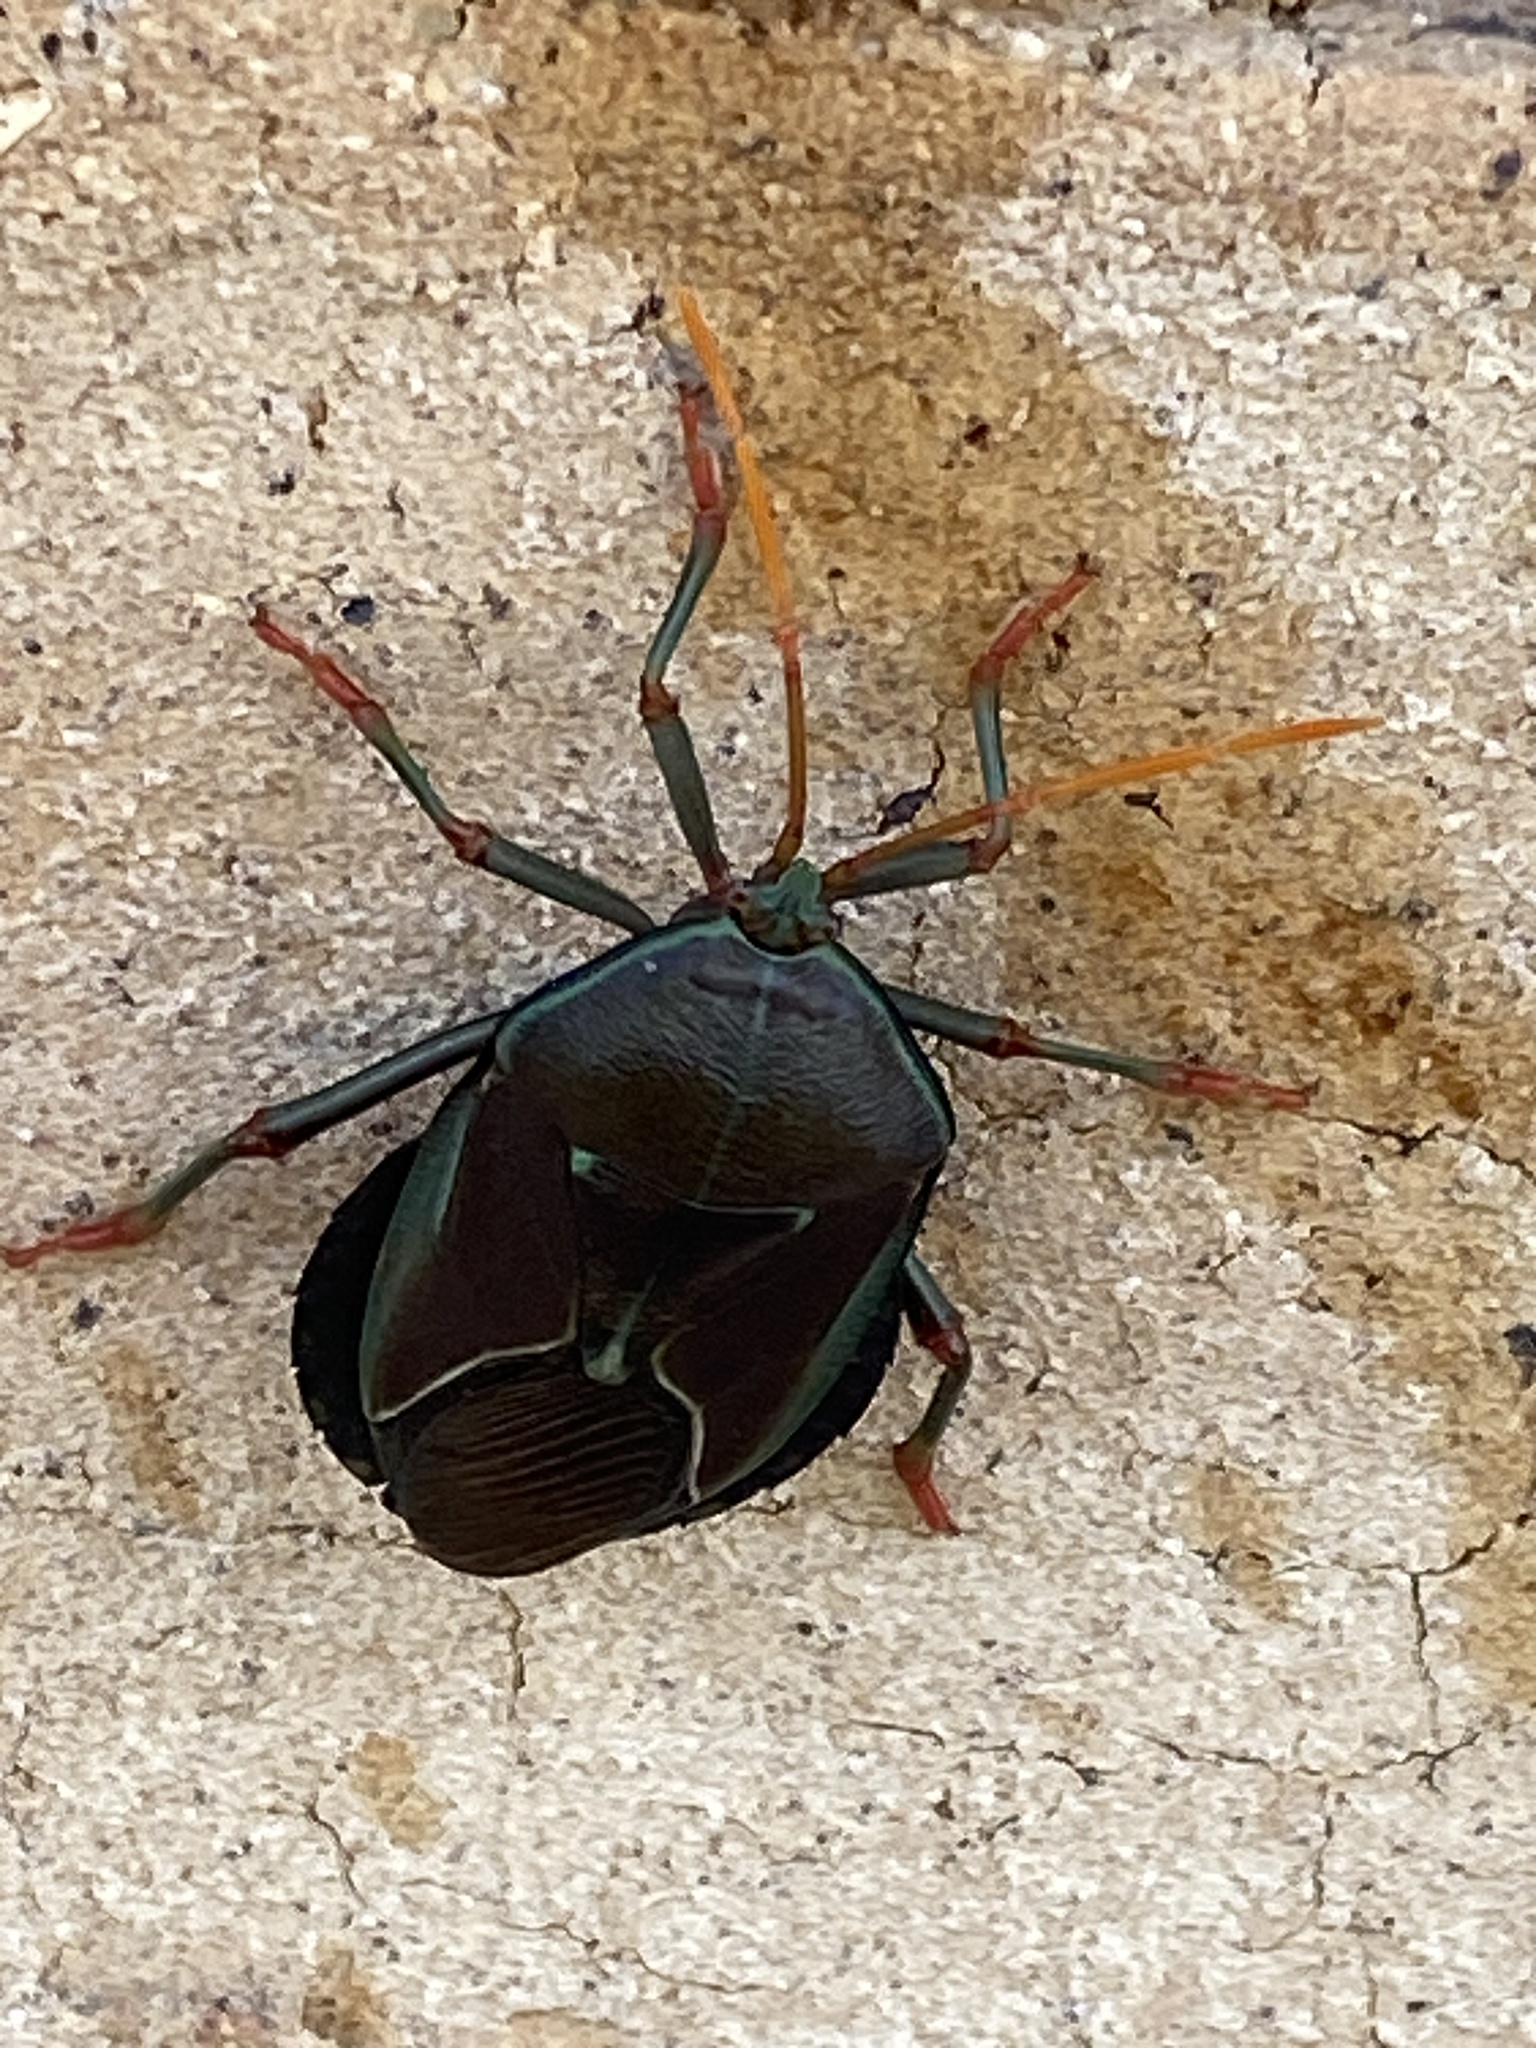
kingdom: Animalia
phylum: Arthropoda
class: Insecta
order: Hemiptera
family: Tessaratomidae
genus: Musgraveia
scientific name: Musgraveia sulciventris
